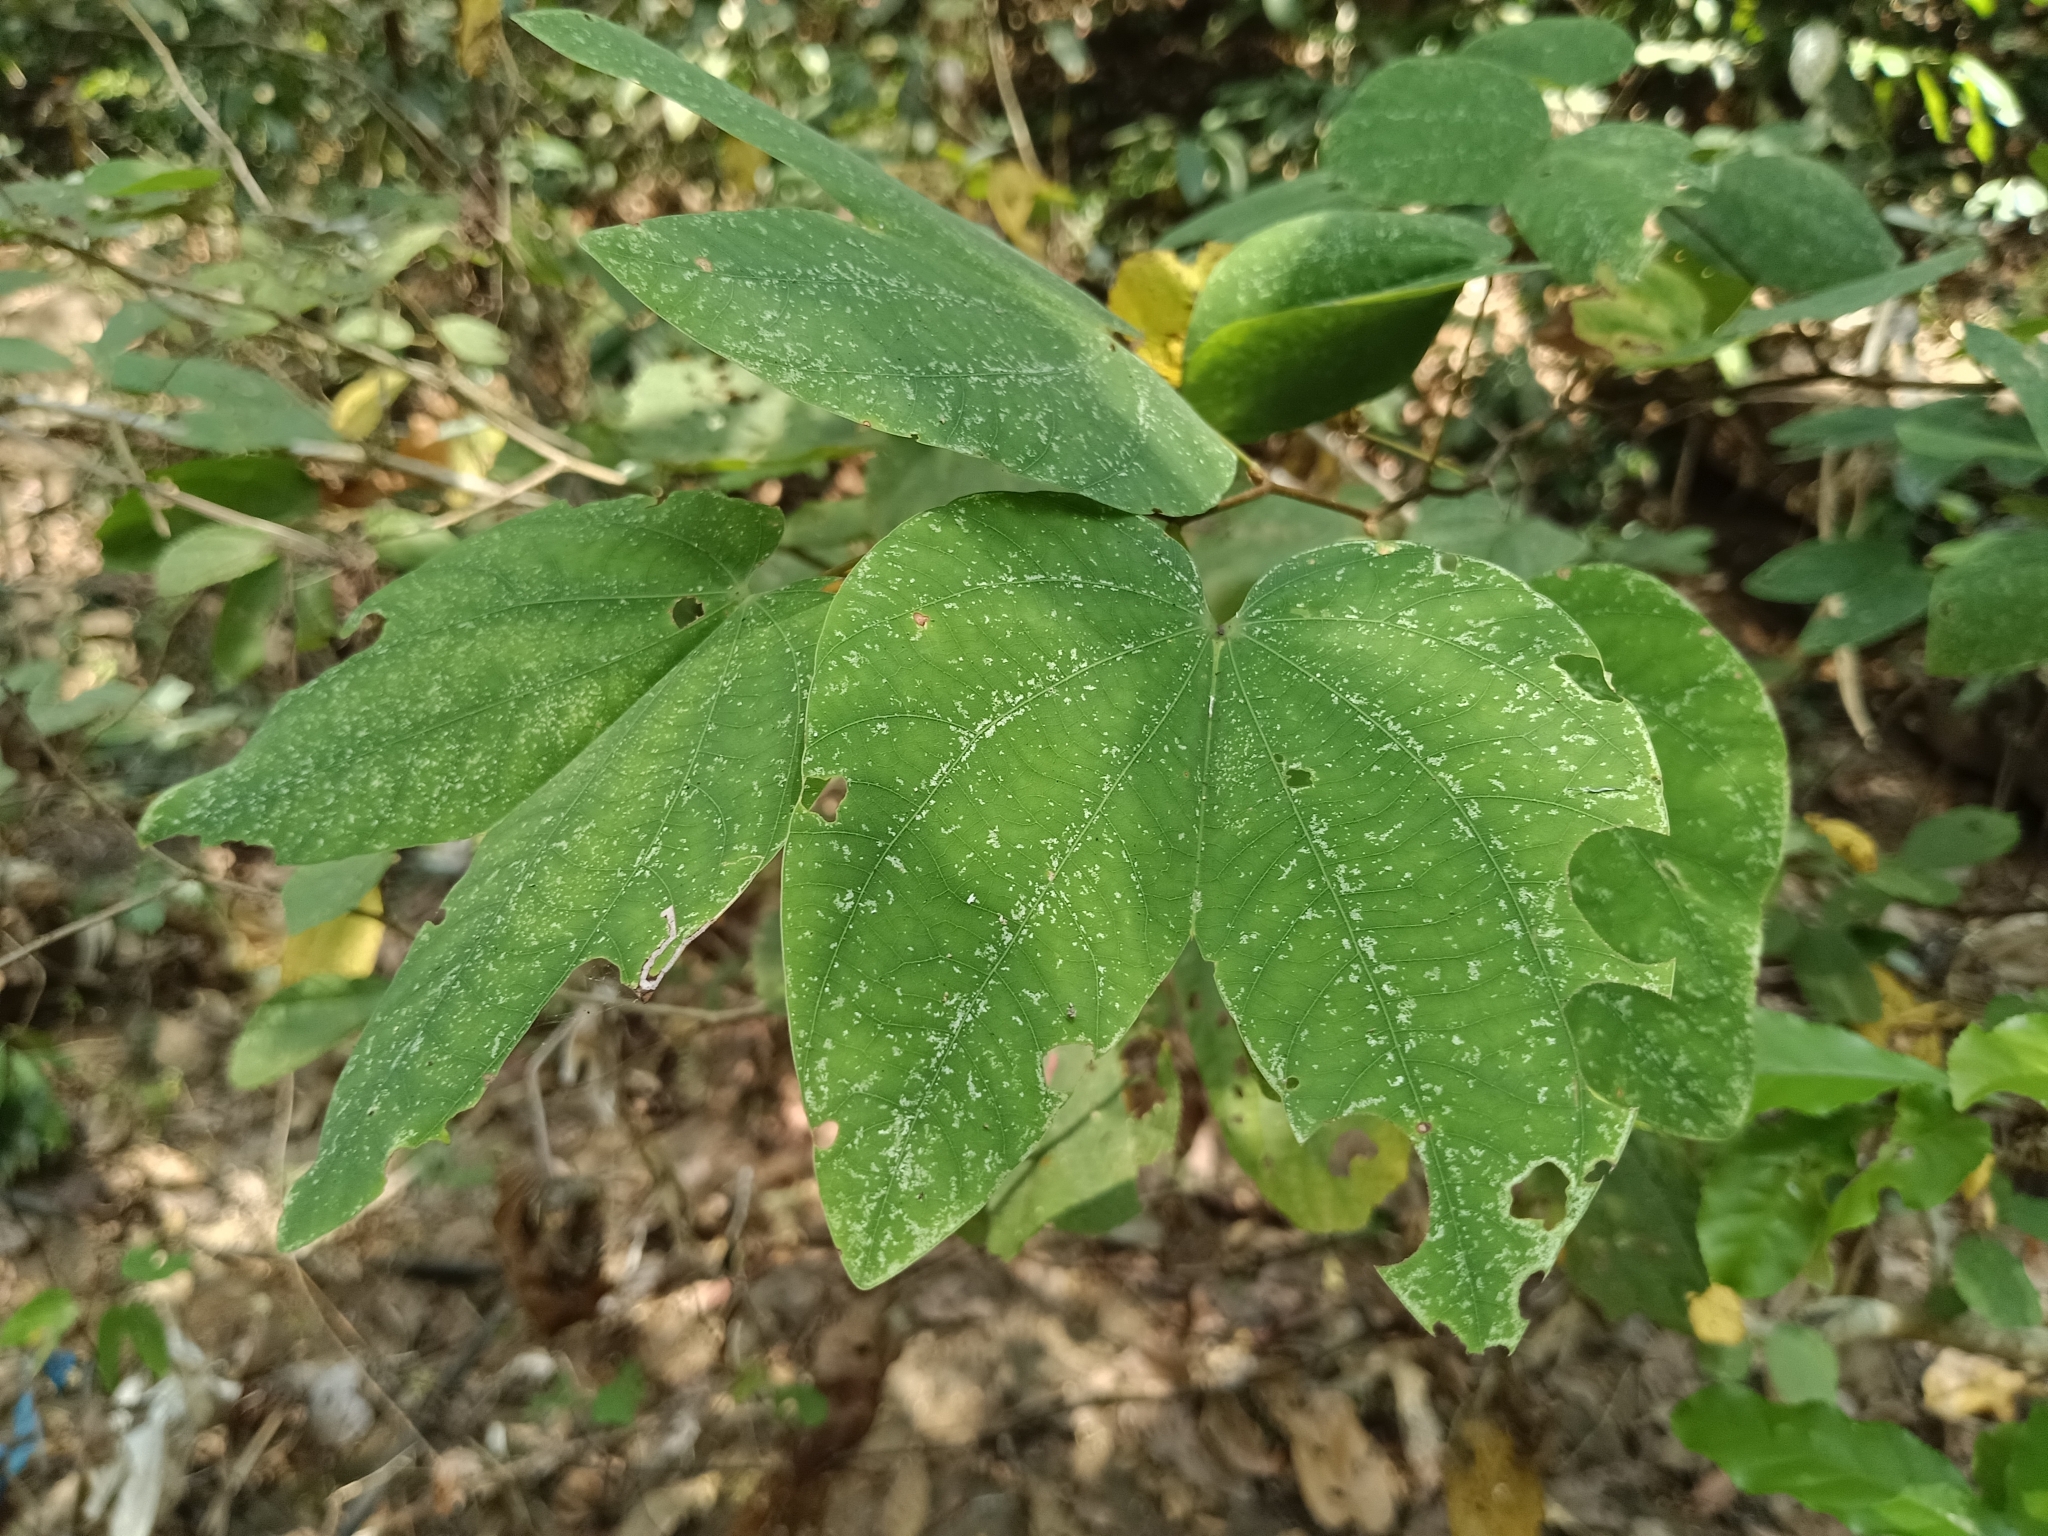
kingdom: Plantae
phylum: Tracheophyta
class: Magnoliopsida
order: Fabales
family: Fabaceae
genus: Phanera
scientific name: Phanera vahlii
